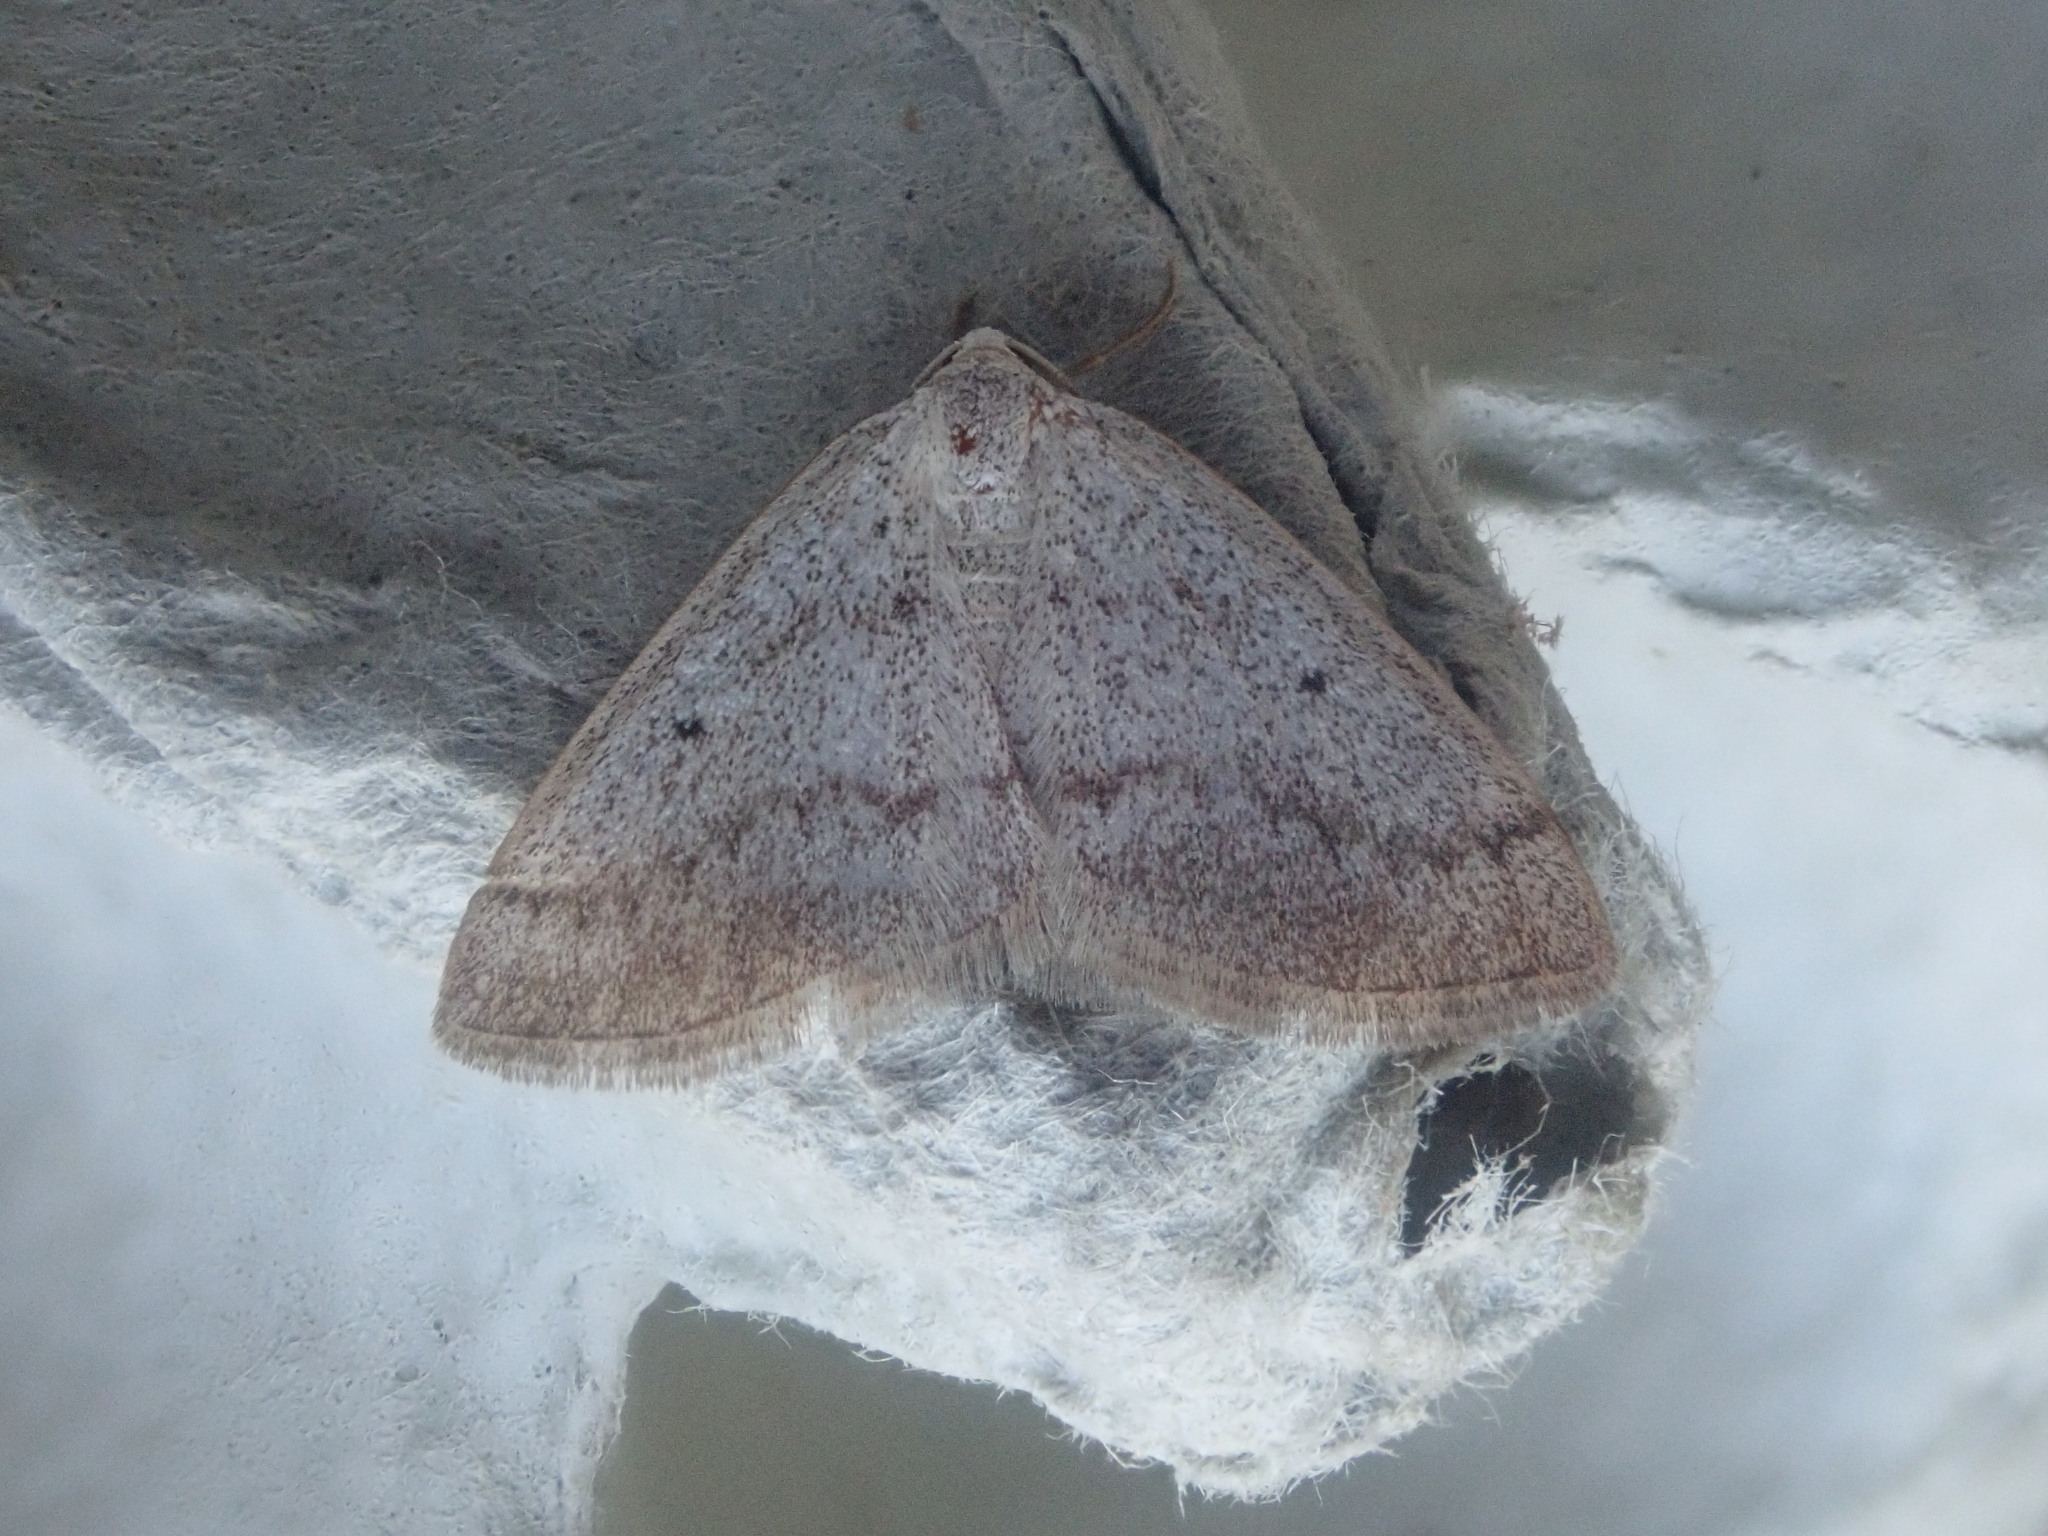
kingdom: Animalia
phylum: Arthropoda
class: Insecta
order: Lepidoptera
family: Geometridae
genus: Lomographa
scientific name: Lomographa glomeraria
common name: Gray spring moth
